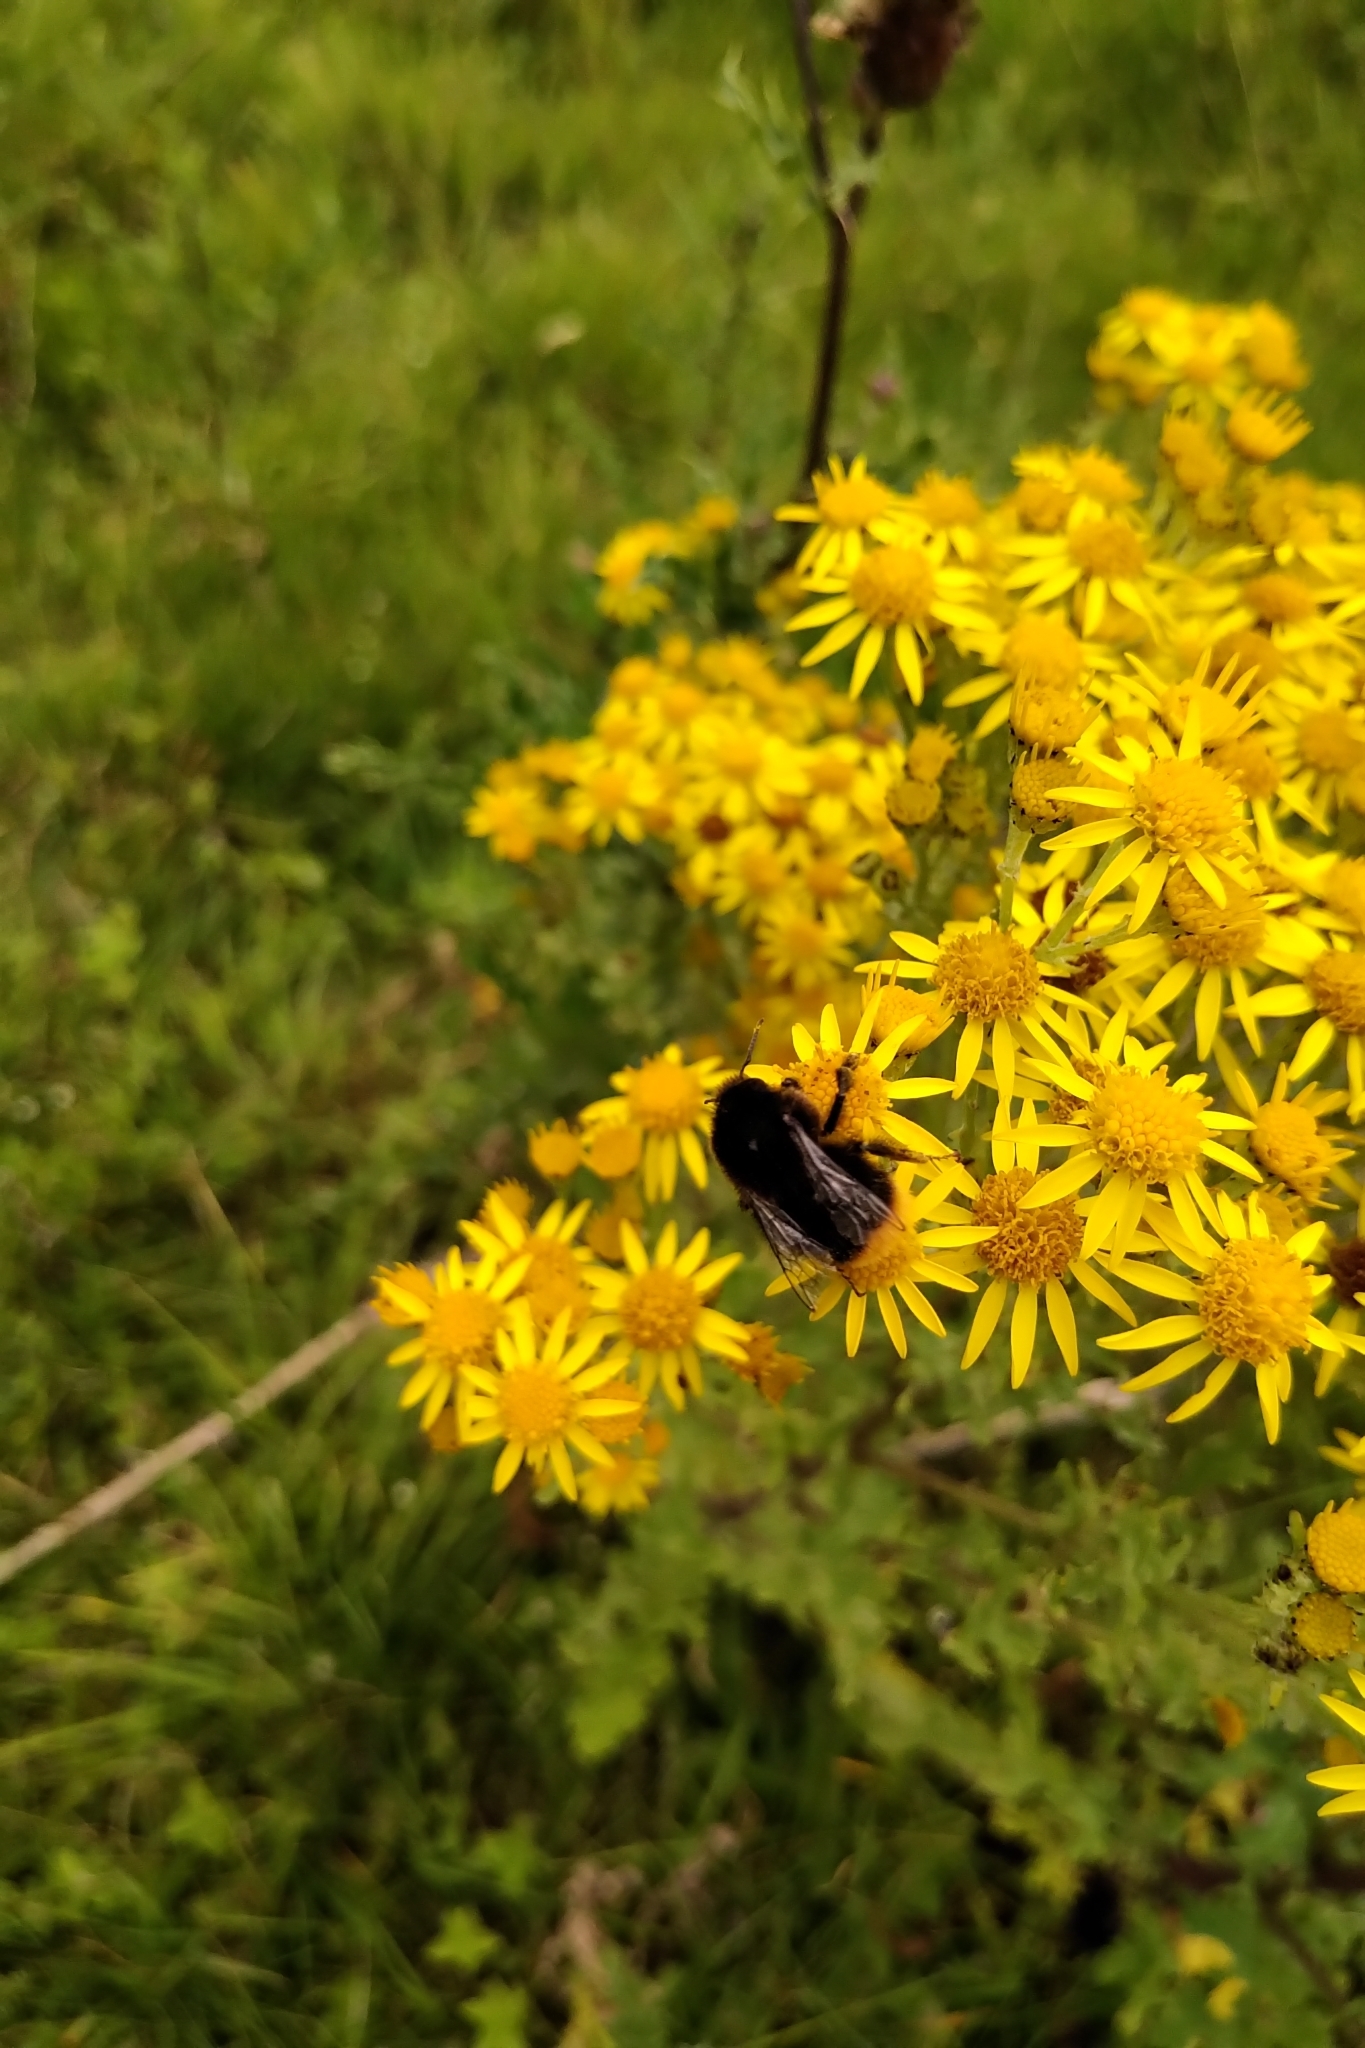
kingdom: Animalia
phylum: Arthropoda
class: Insecta
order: Hymenoptera
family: Apidae
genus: Bombus
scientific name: Bombus lapidarius
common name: Large red-tailed humble-bee
